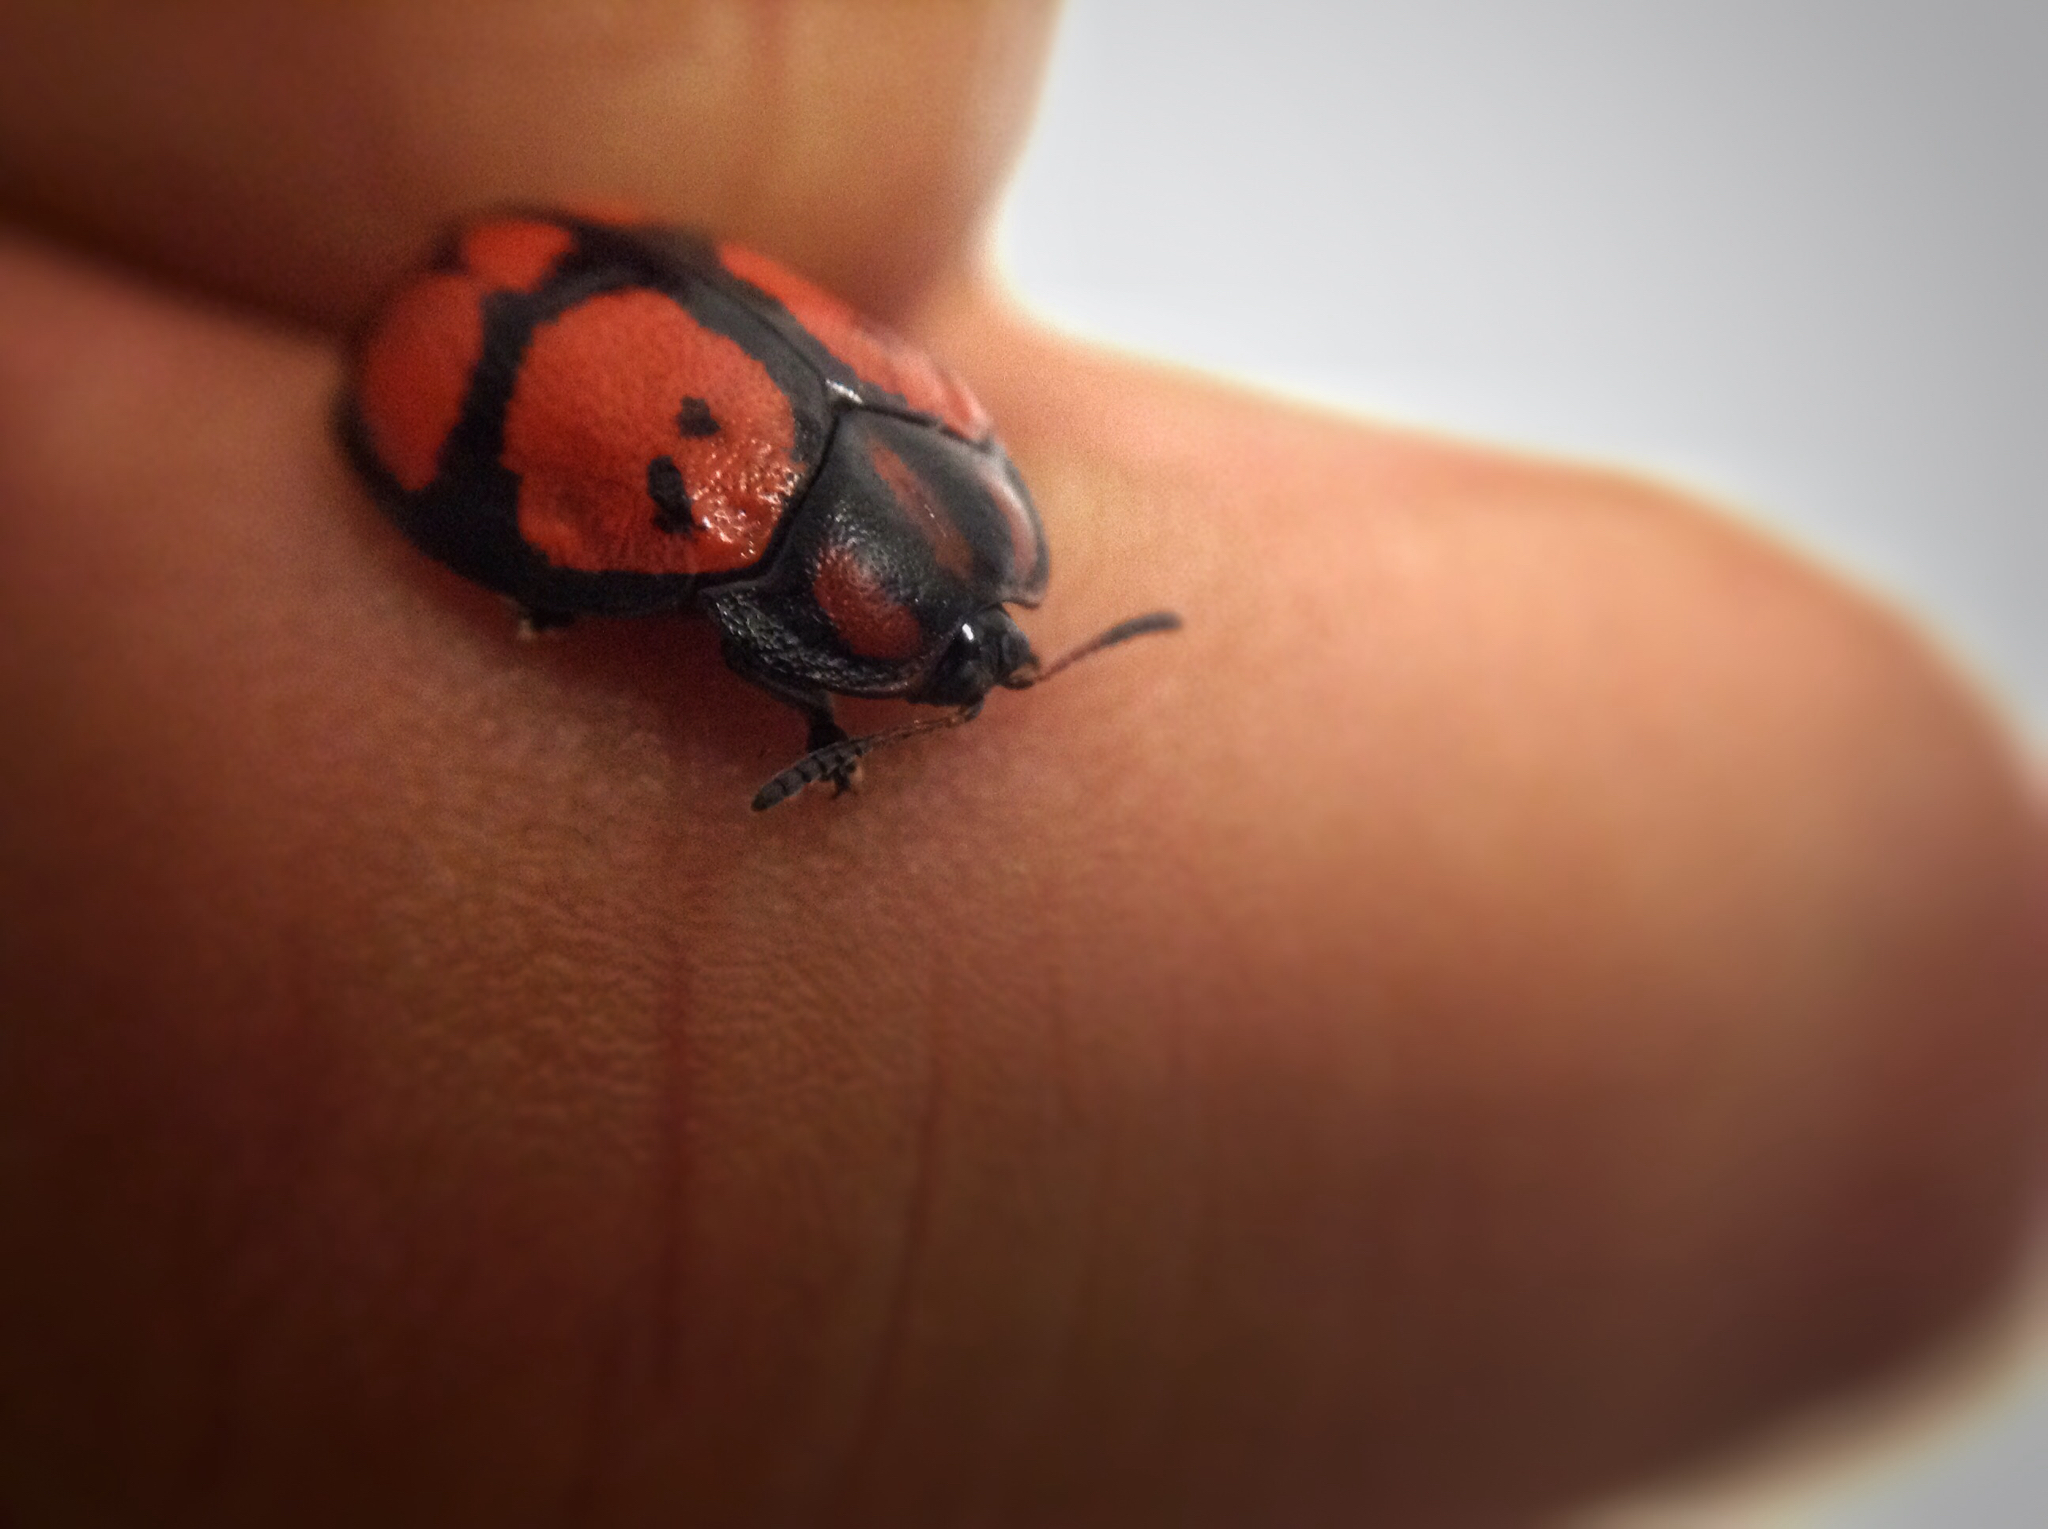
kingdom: Animalia
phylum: Arthropoda
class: Insecta
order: Coleoptera
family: Chrysomelidae
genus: Ogdoecosta
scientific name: Ogdoecosta biannularis
